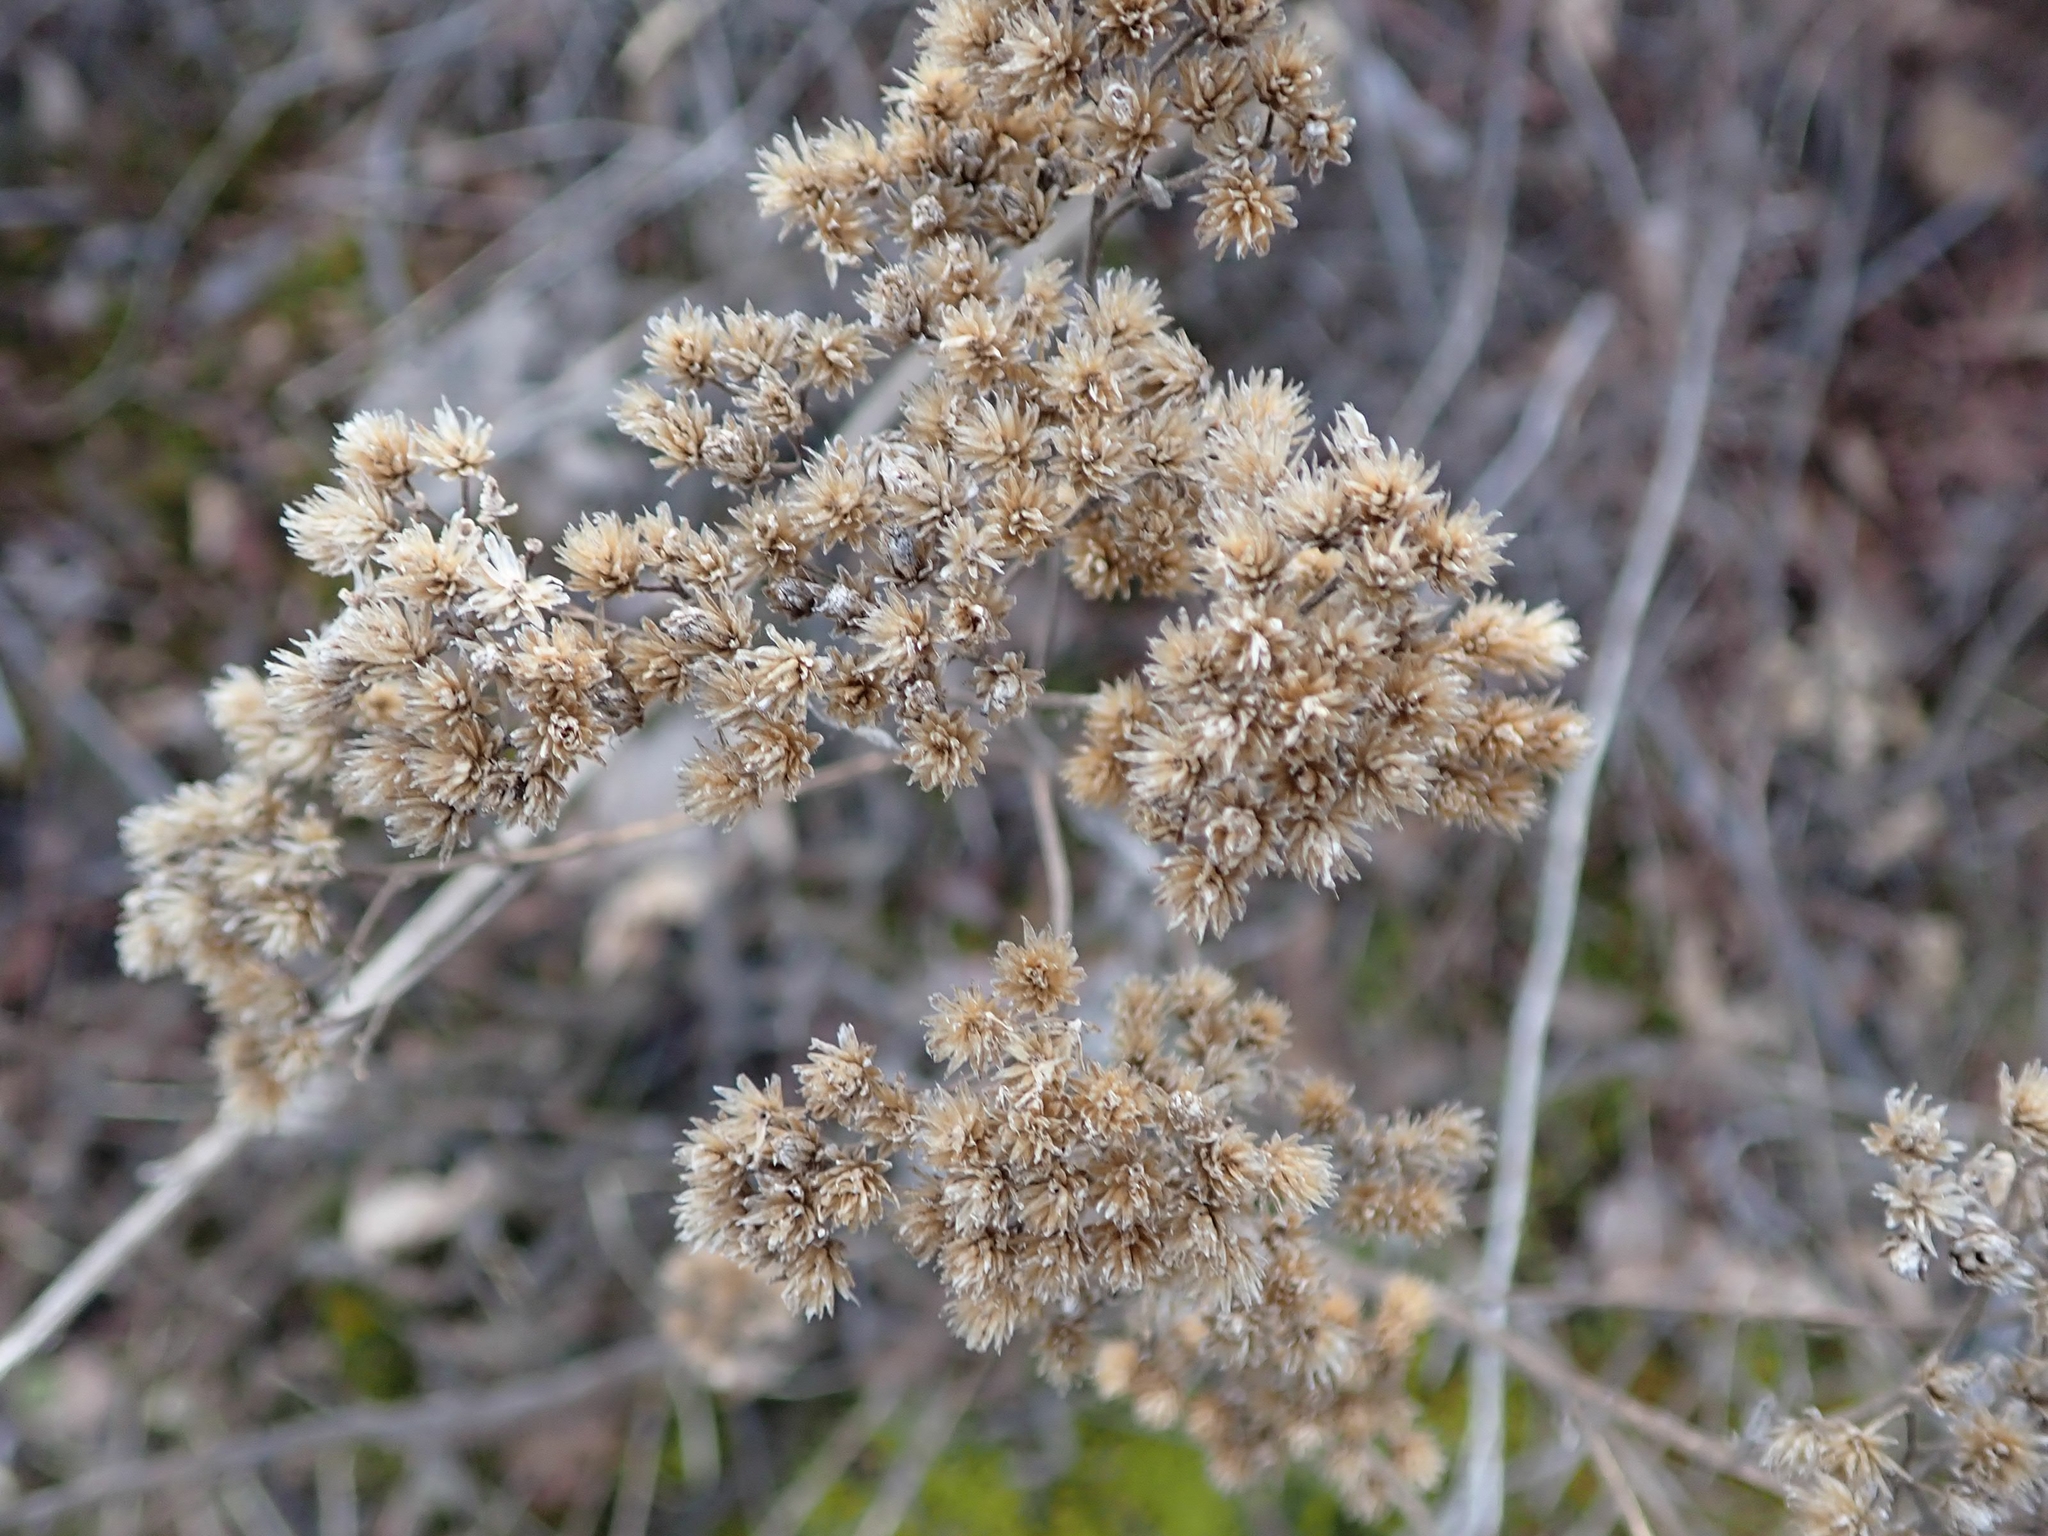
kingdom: Plantae
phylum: Tracheophyta
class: Magnoliopsida
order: Asterales
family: Asteraceae
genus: Achillea
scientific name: Achillea millefolium
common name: Yarrow
